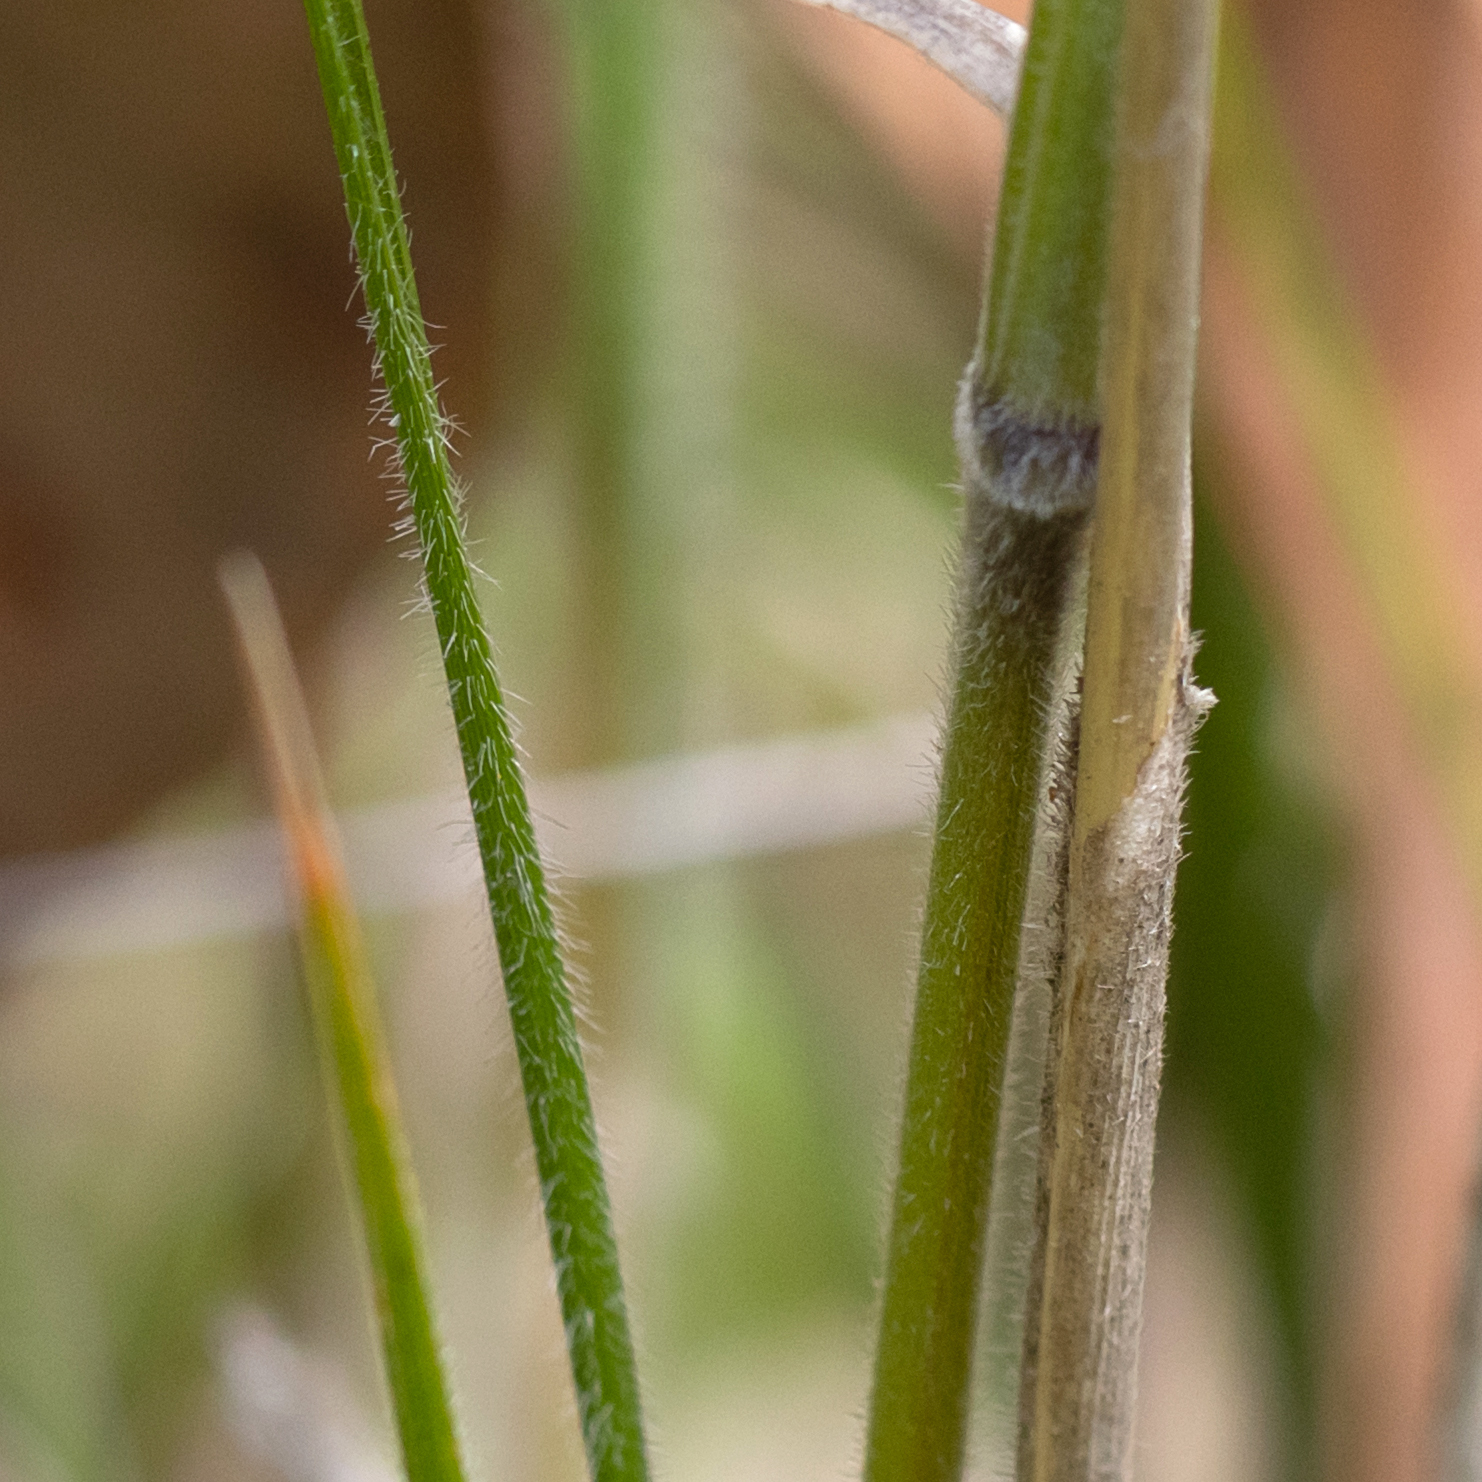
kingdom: Plantae
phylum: Tracheophyta
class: Liliopsida
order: Poales
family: Poaceae
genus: Austrostipa
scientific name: Austrostipa campylachne
